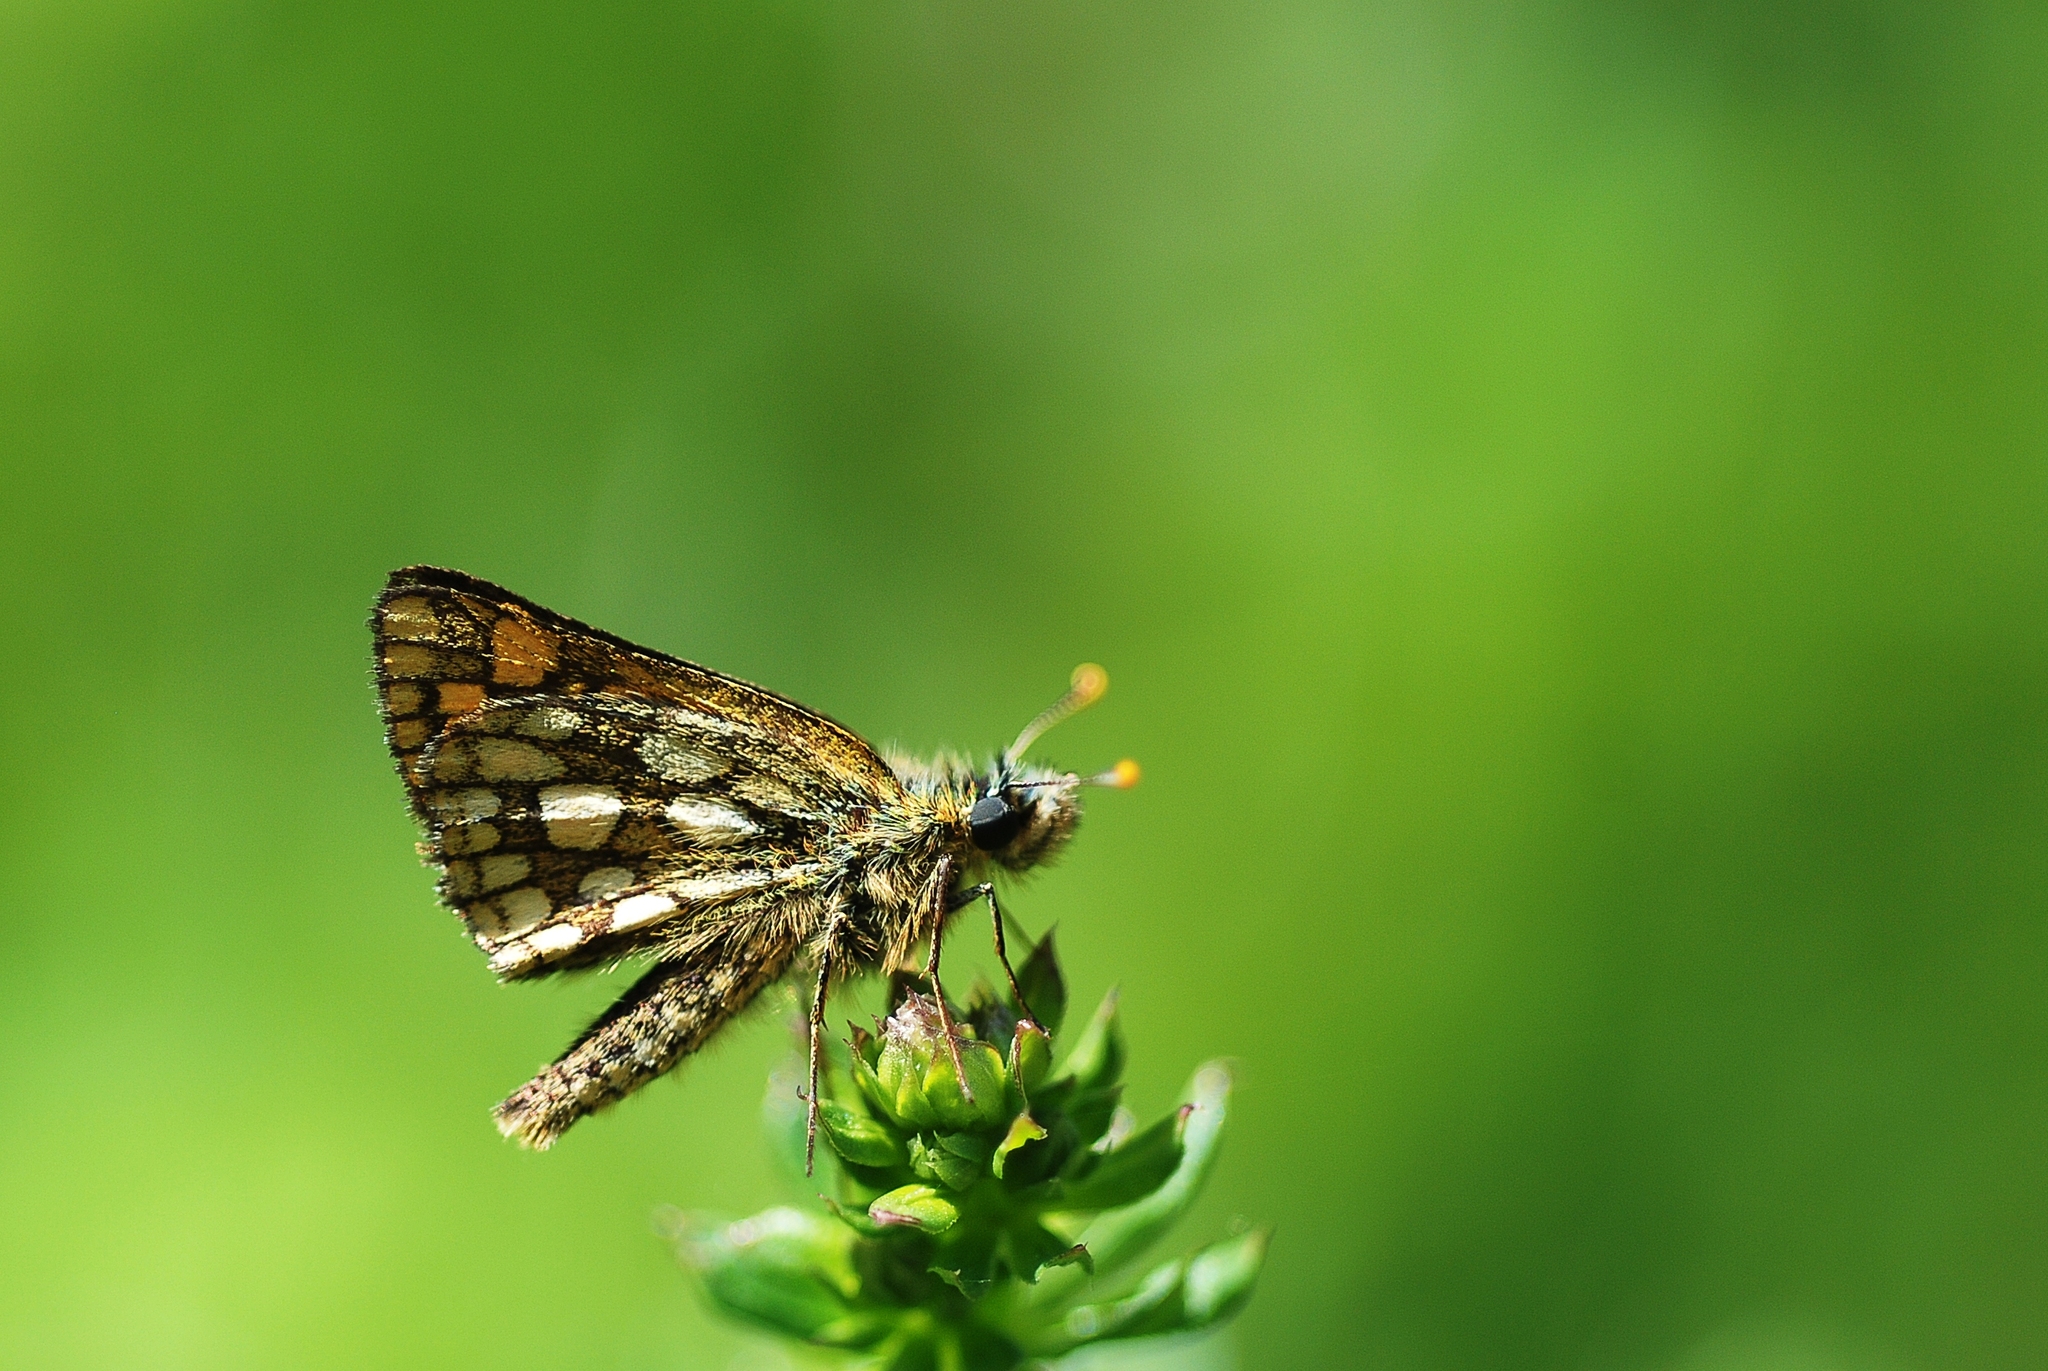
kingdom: Animalia
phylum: Arthropoda
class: Insecta
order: Lepidoptera
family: Hesperiidae
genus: Carterocephalus
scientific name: Carterocephalus palaemon
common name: Chequered skipper
